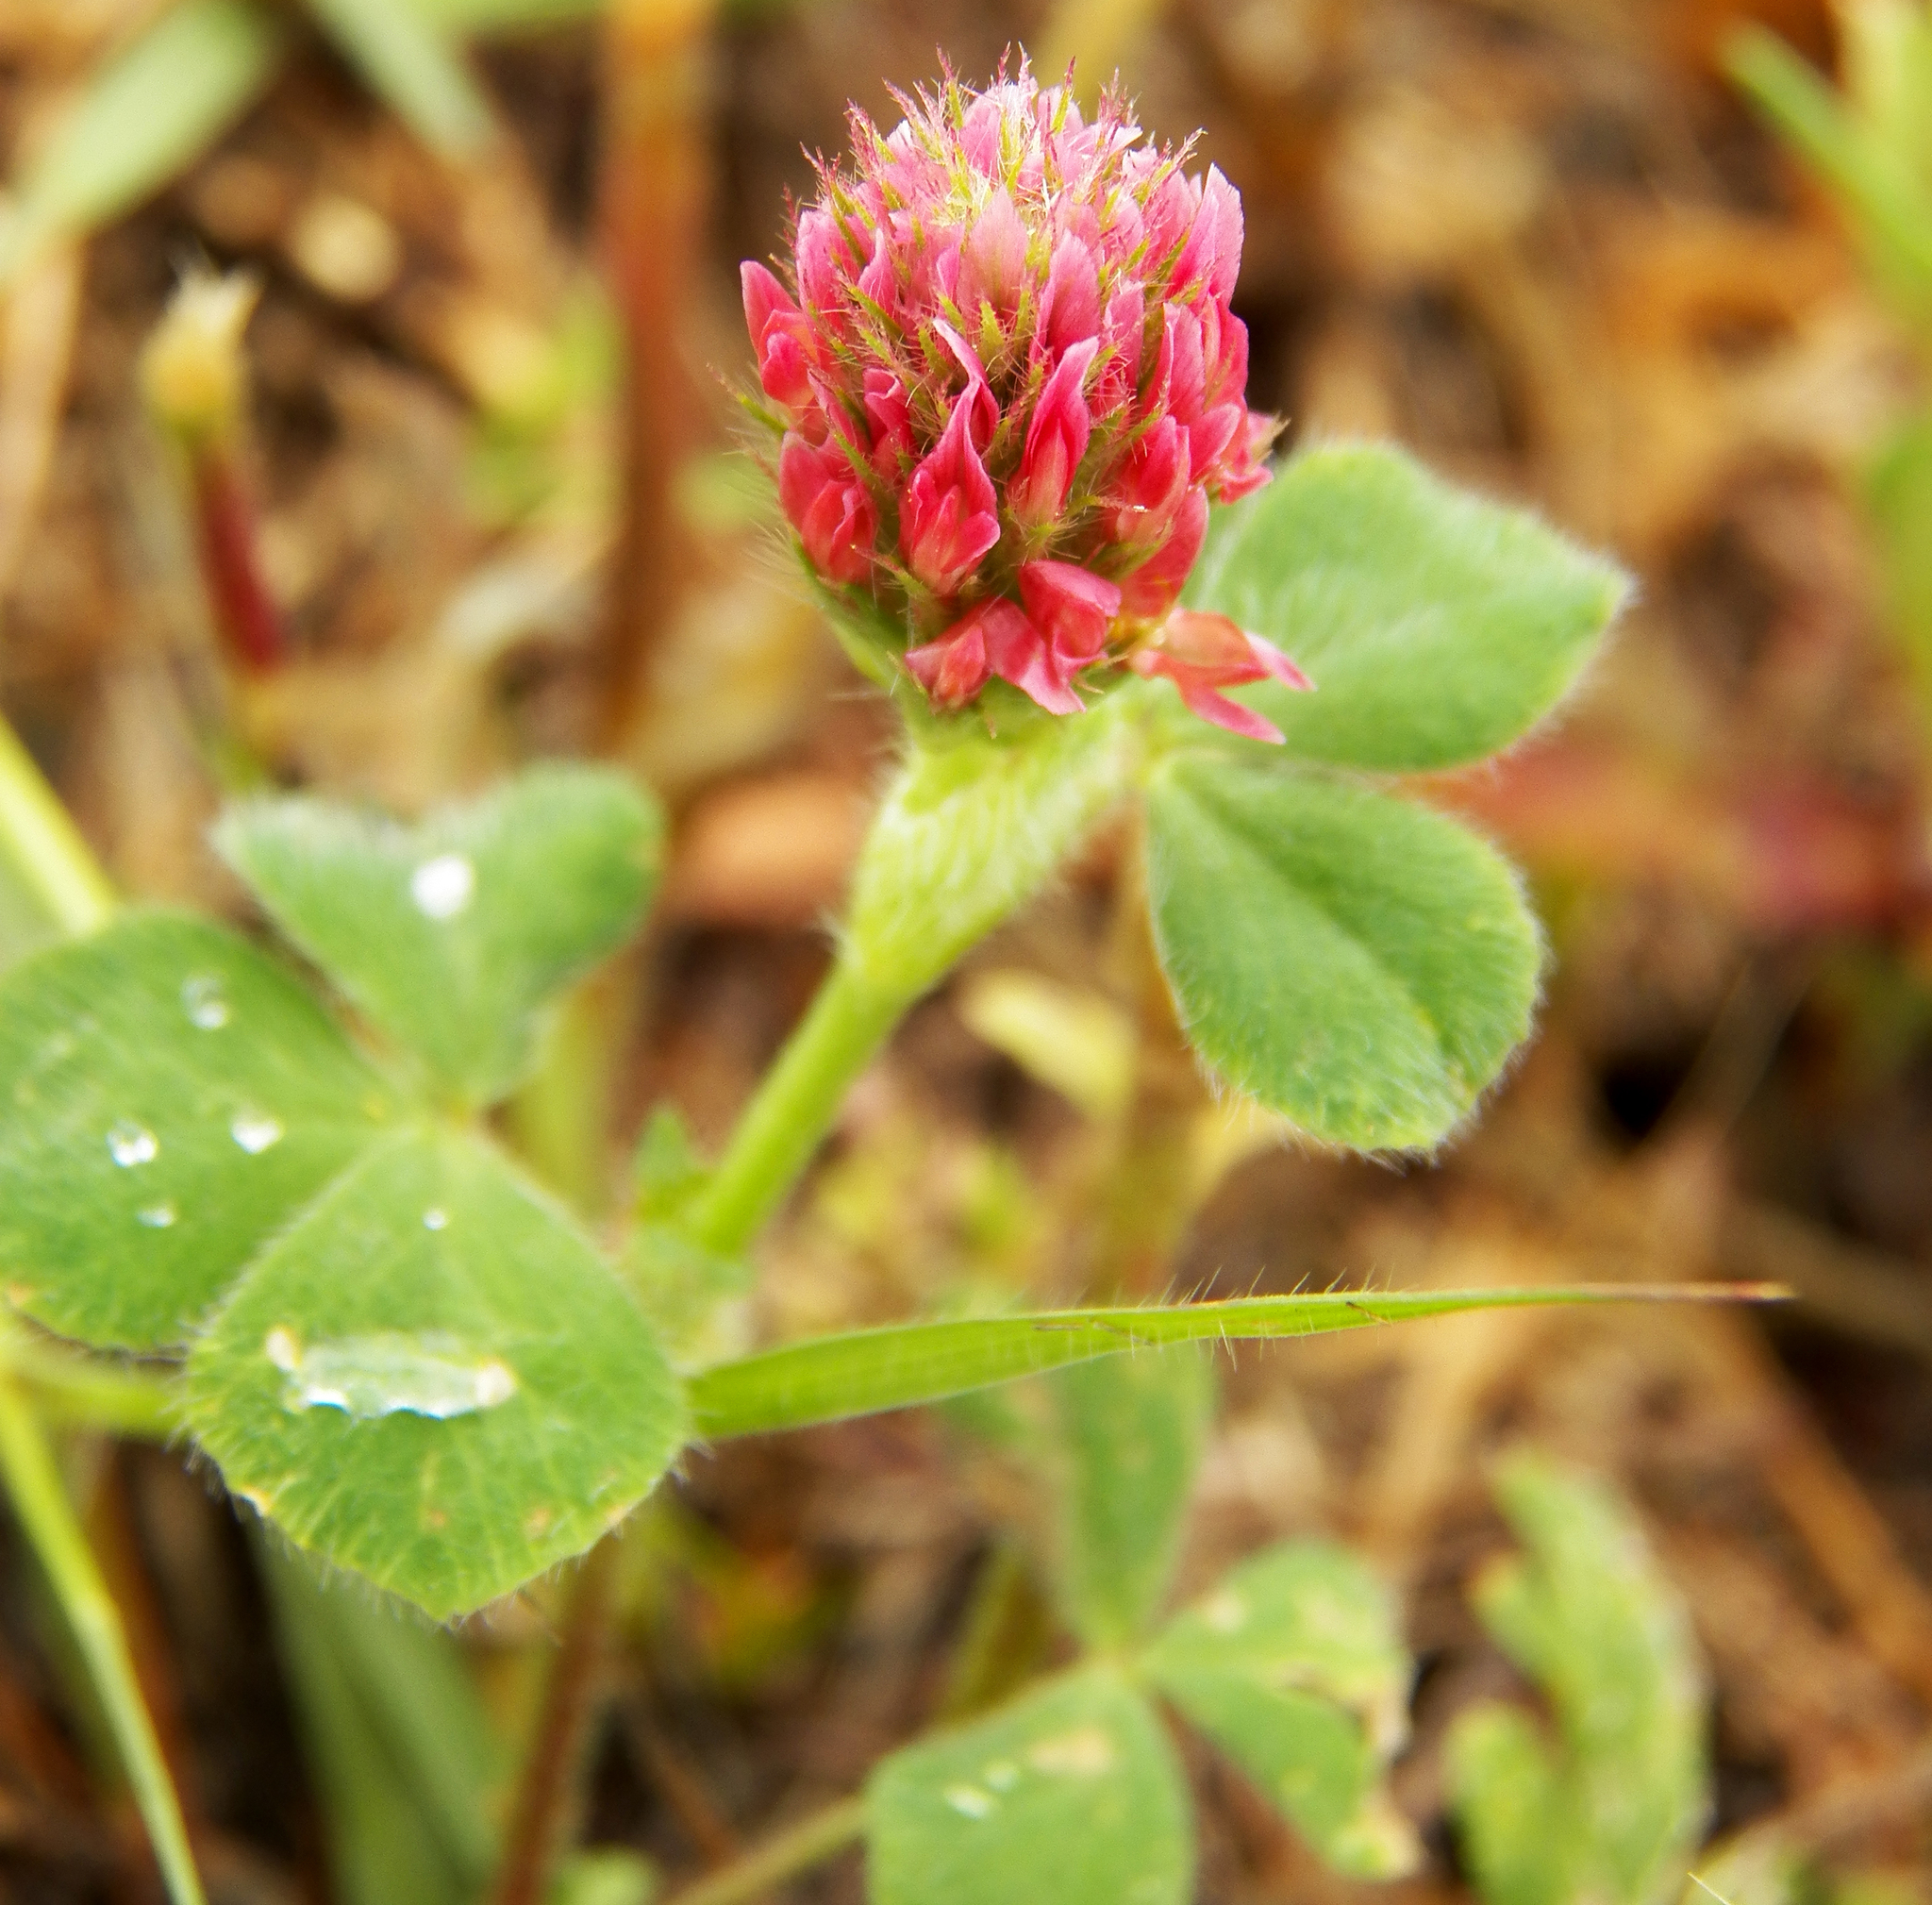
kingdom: Plantae
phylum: Tracheophyta
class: Magnoliopsida
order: Fabales
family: Fabaceae
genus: Trifolium
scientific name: Trifolium incarnatum
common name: Crimson clover
